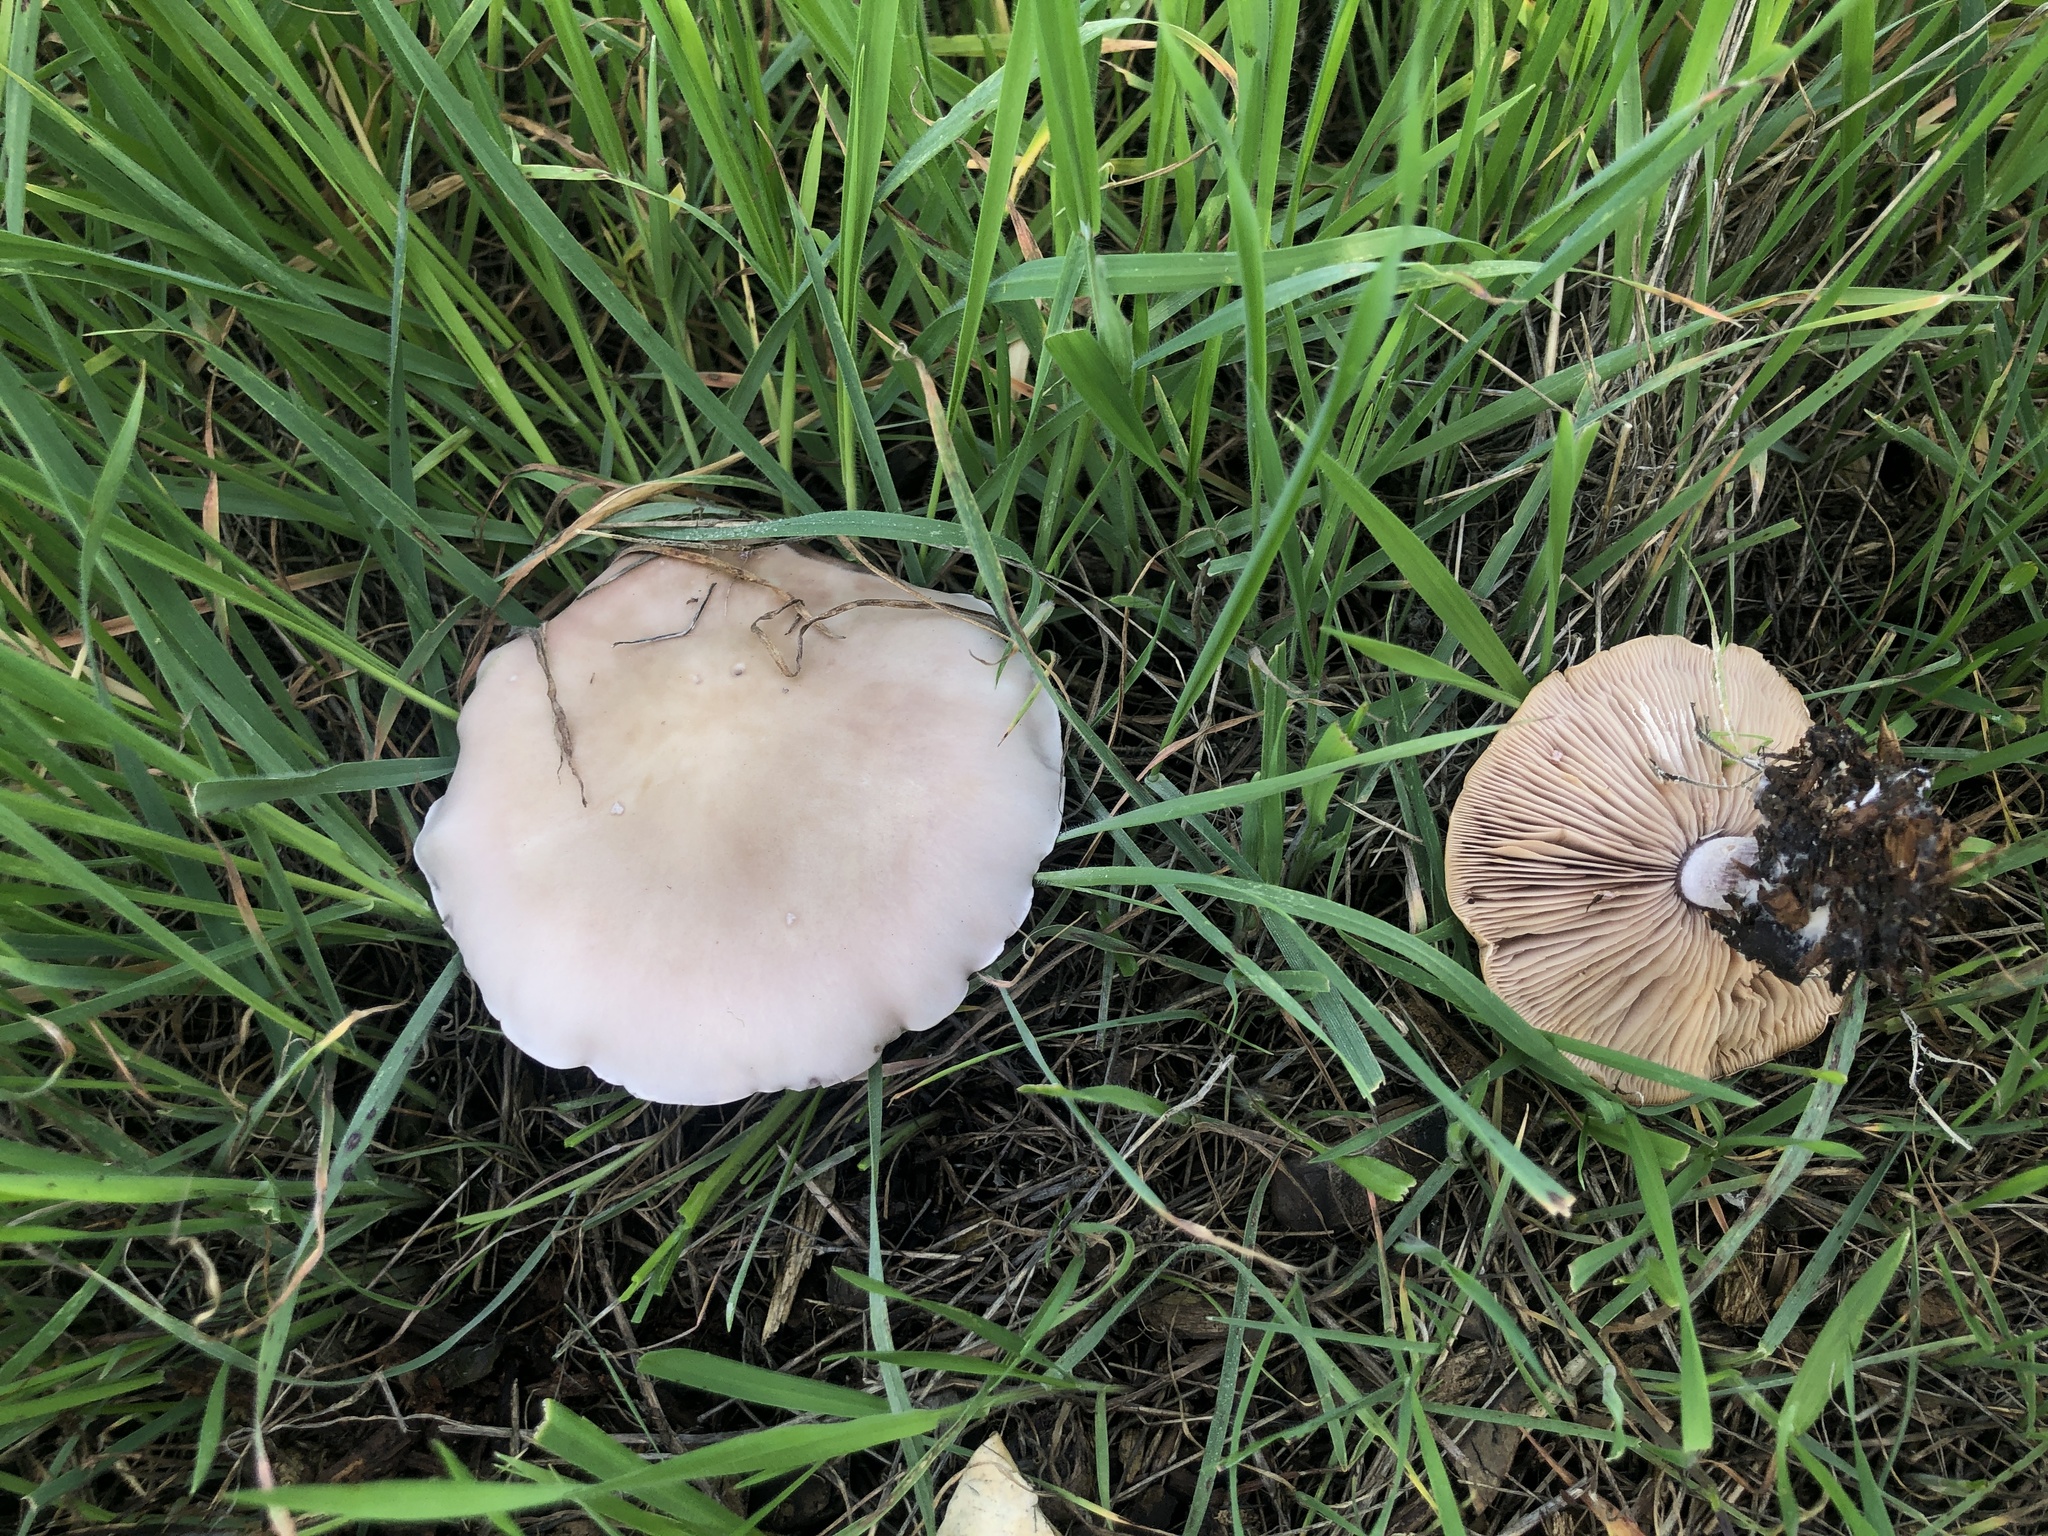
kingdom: Fungi
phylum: Basidiomycota
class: Agaricomycetes
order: Agaricales
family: Tricholomataceae
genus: Collybia
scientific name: Collybia
